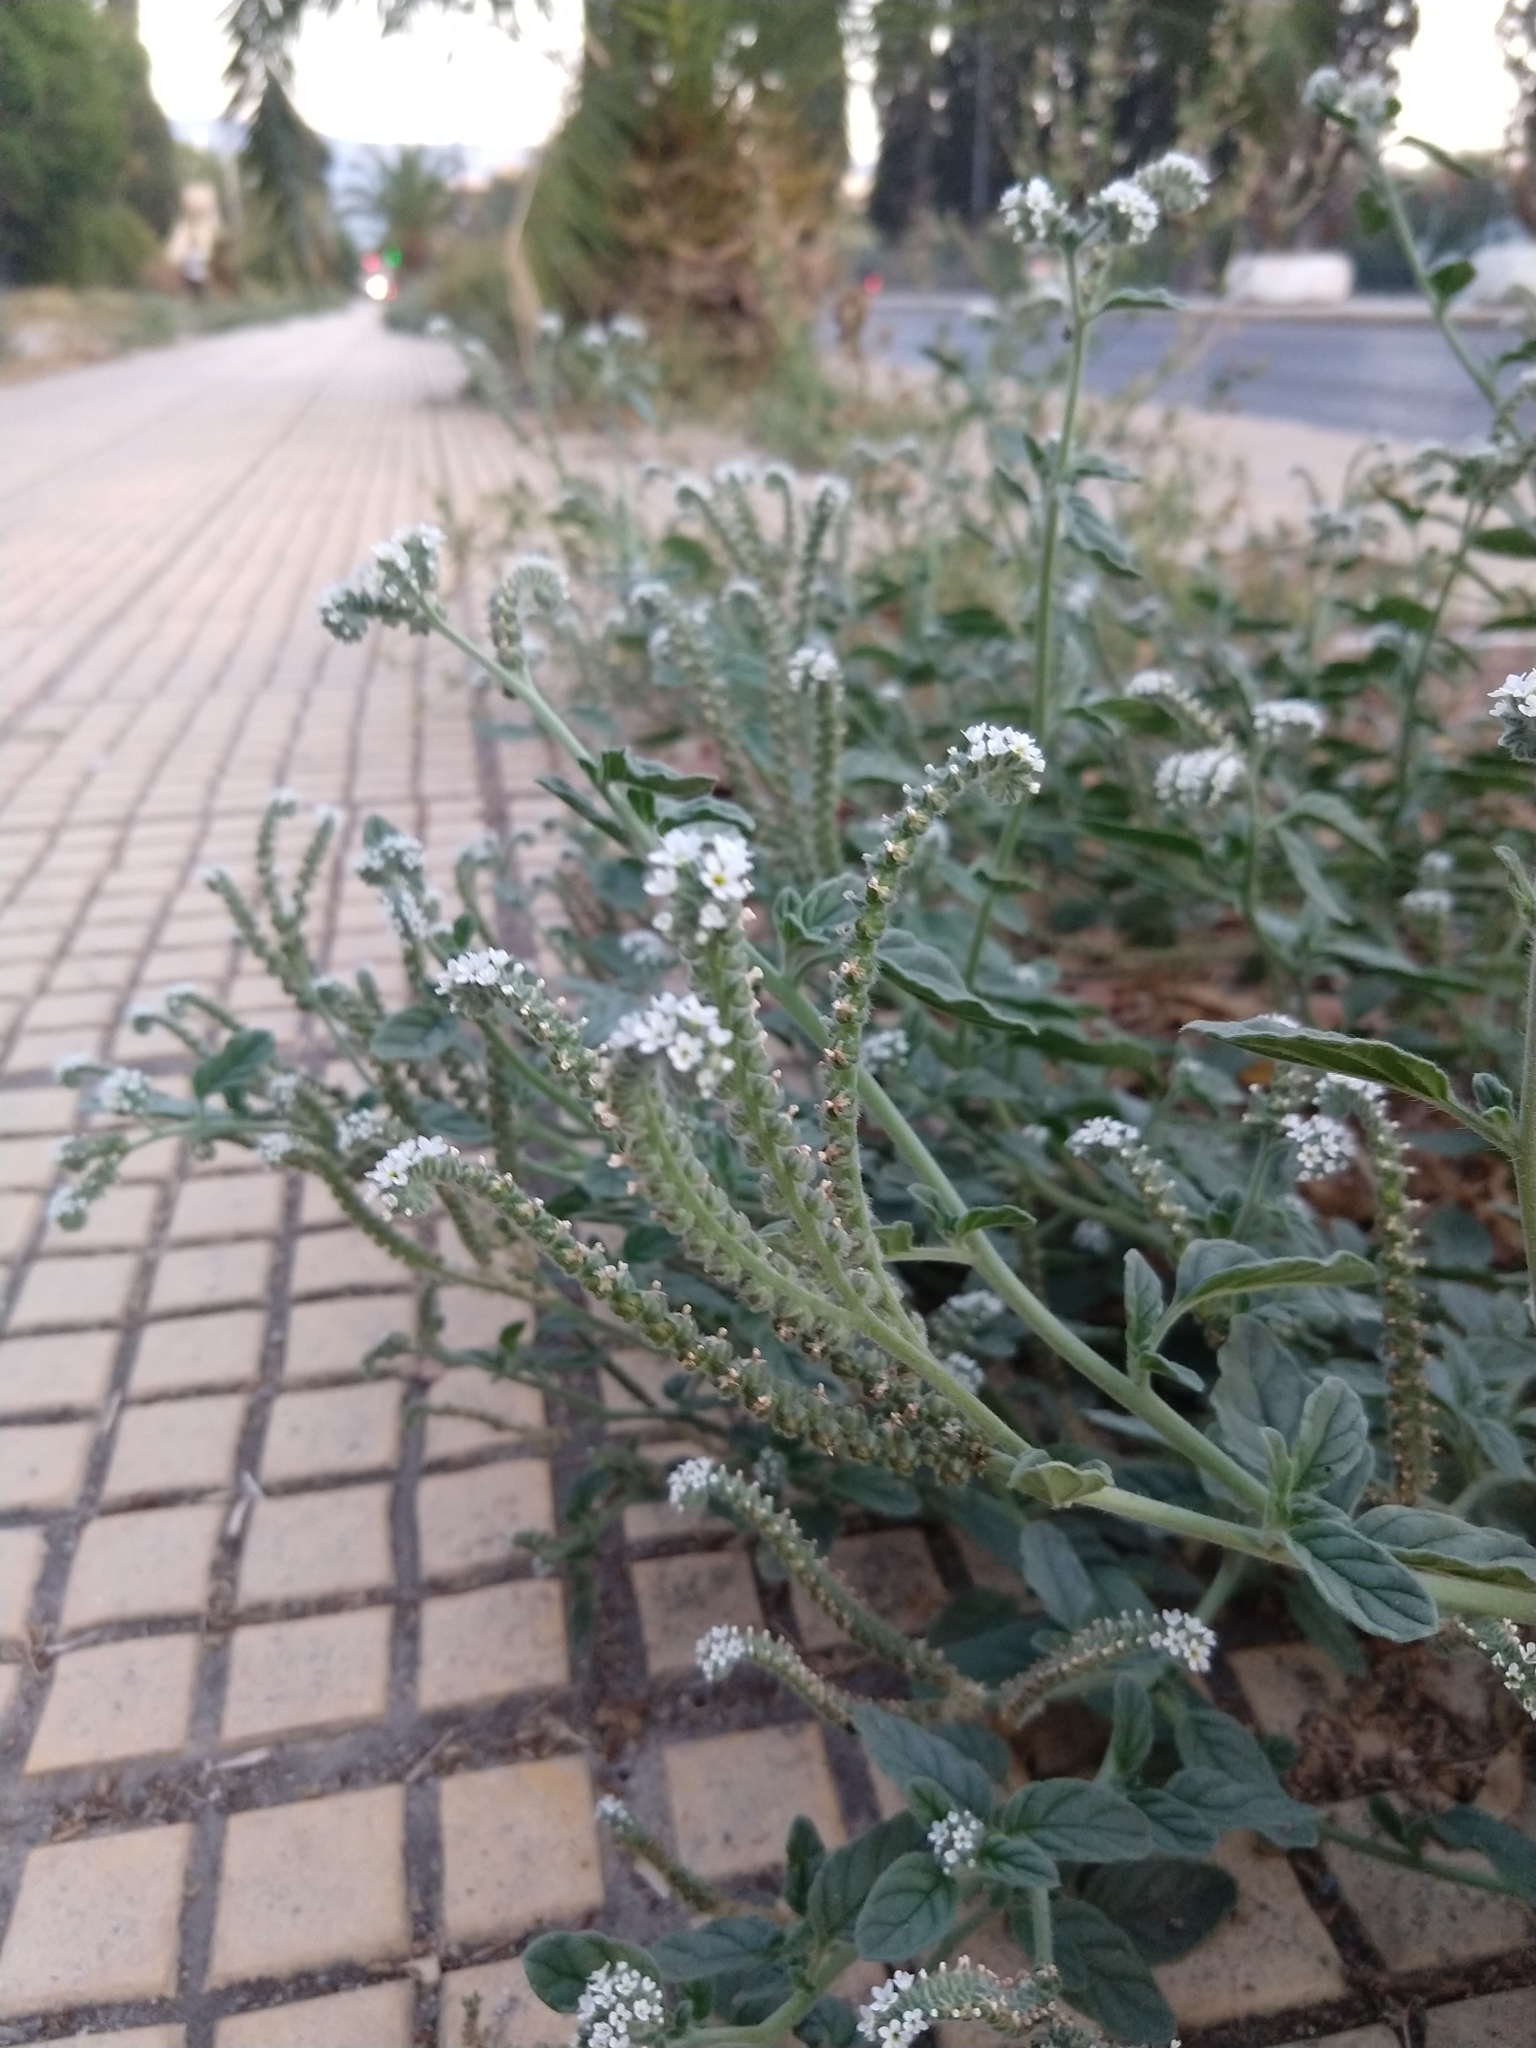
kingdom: Plantae
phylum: Tracheophyta
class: Magnoliopsida
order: Boraginales
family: Heliotropiaceae
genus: Heliotropium
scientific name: Heliotropium europaeum
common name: European heliotrope
